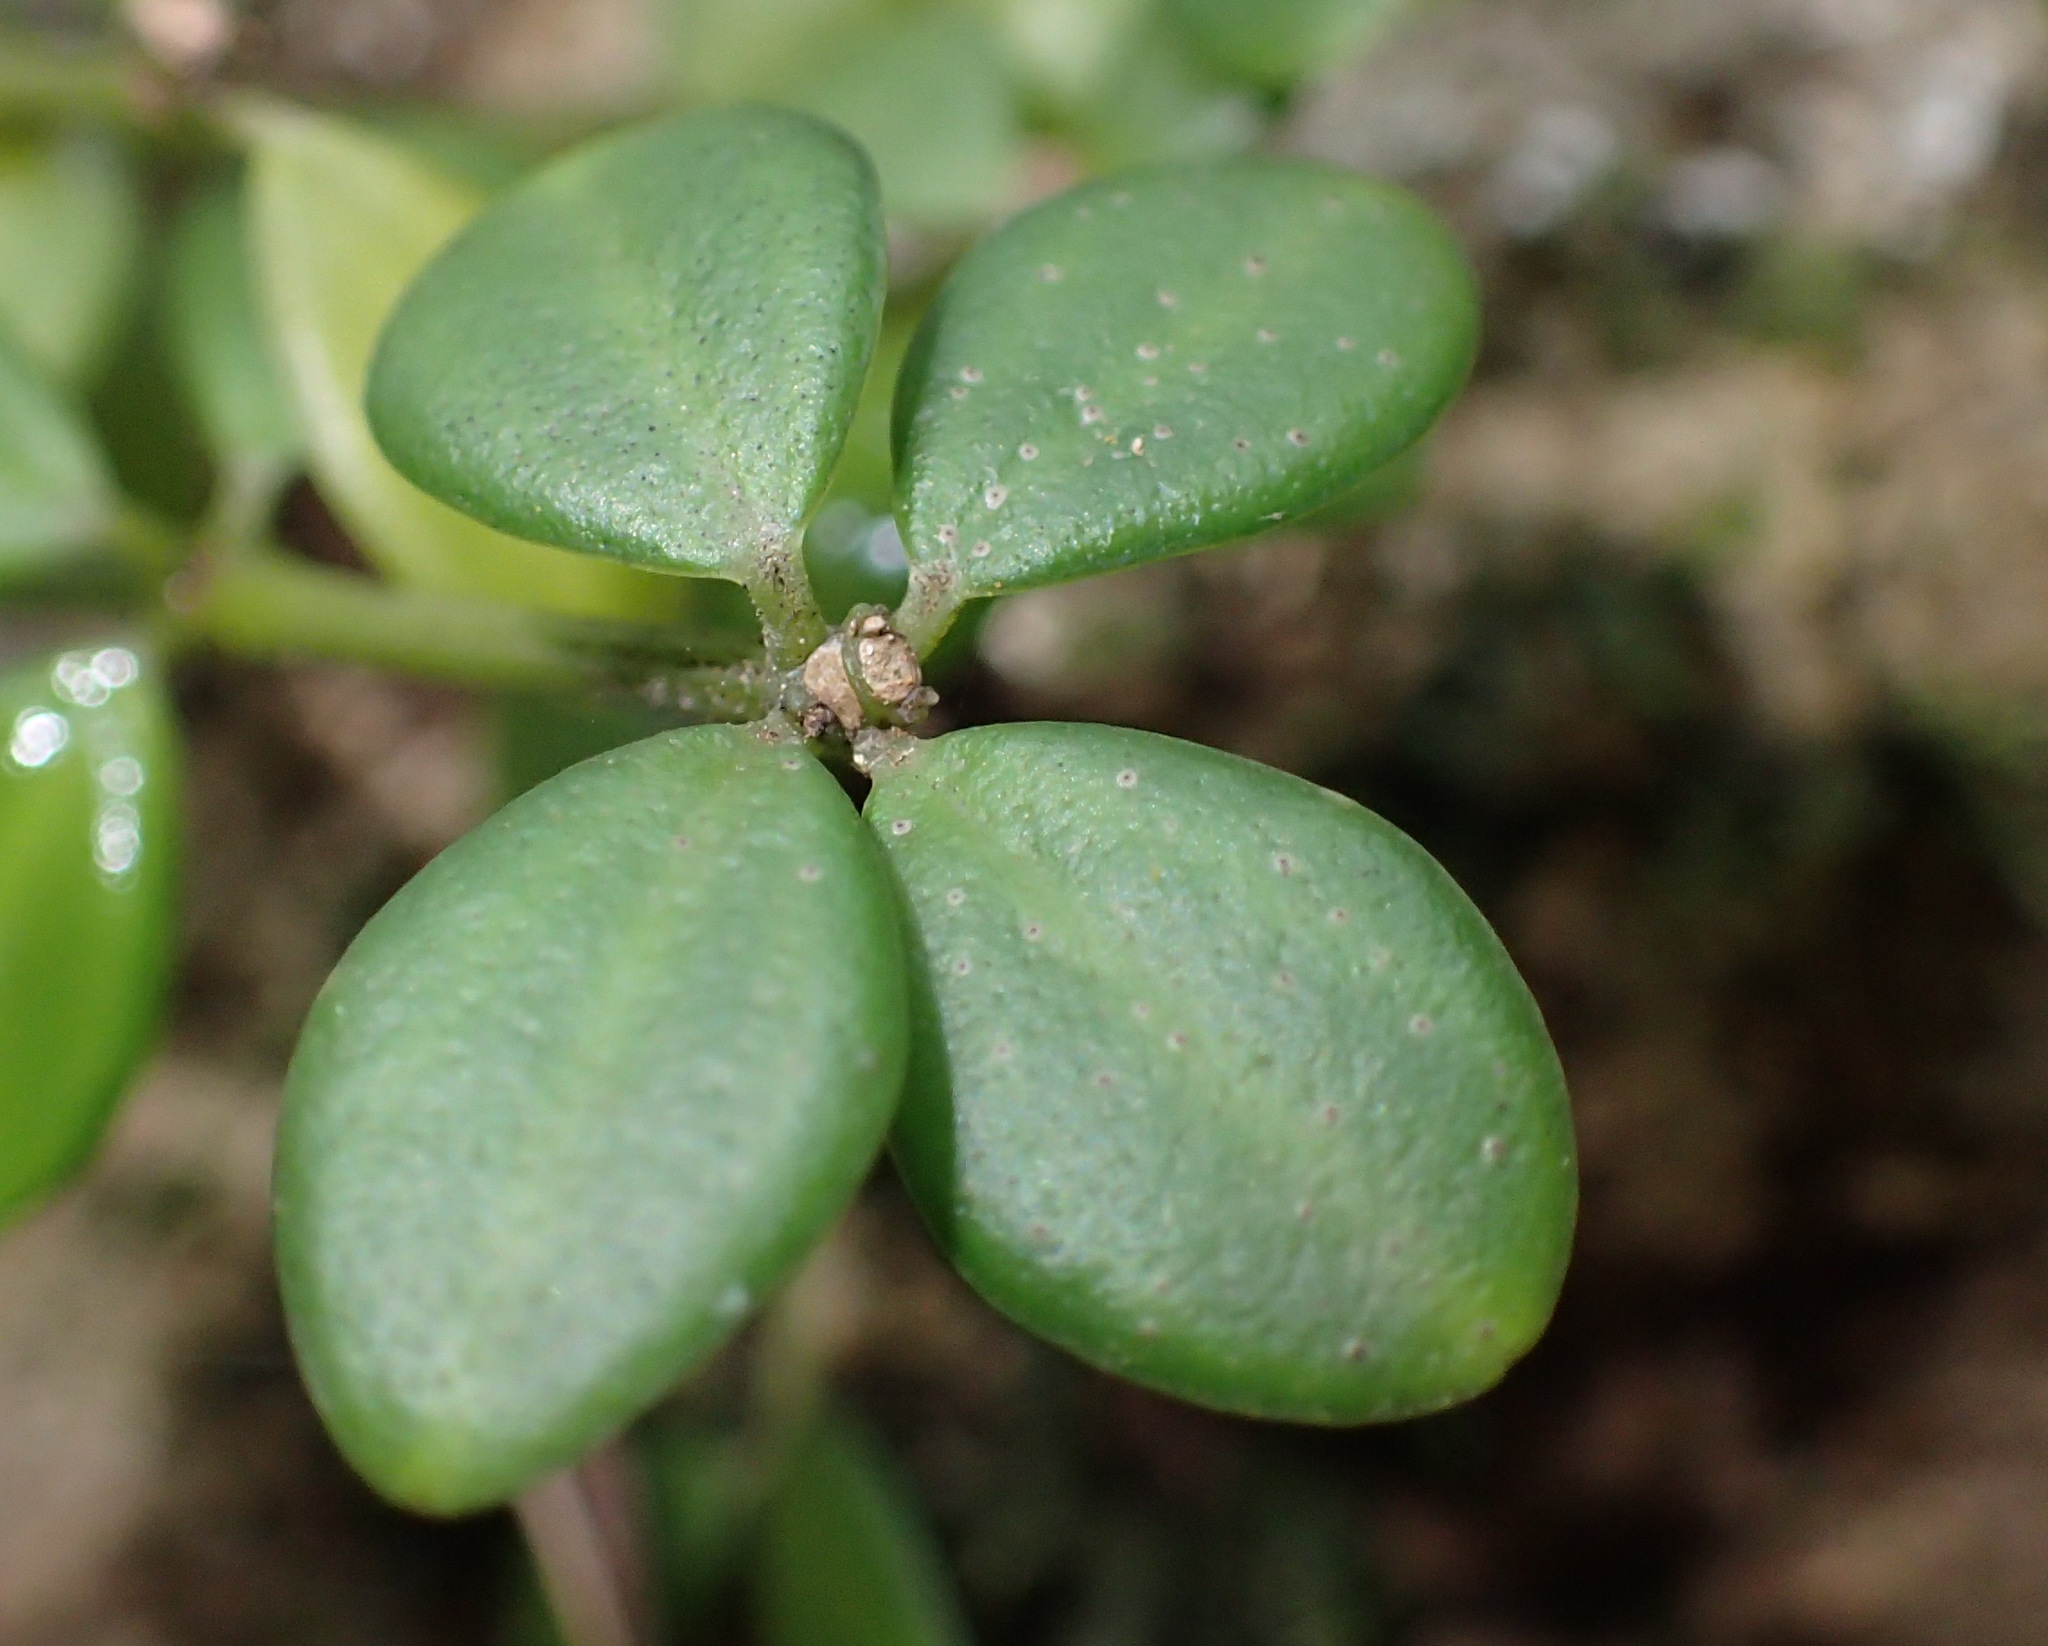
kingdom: Plantae
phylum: Tracheophyta
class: Magnoliopsida
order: Piperales
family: Piperaceae
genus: Peperomia
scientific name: Peperomia tetraphylla
